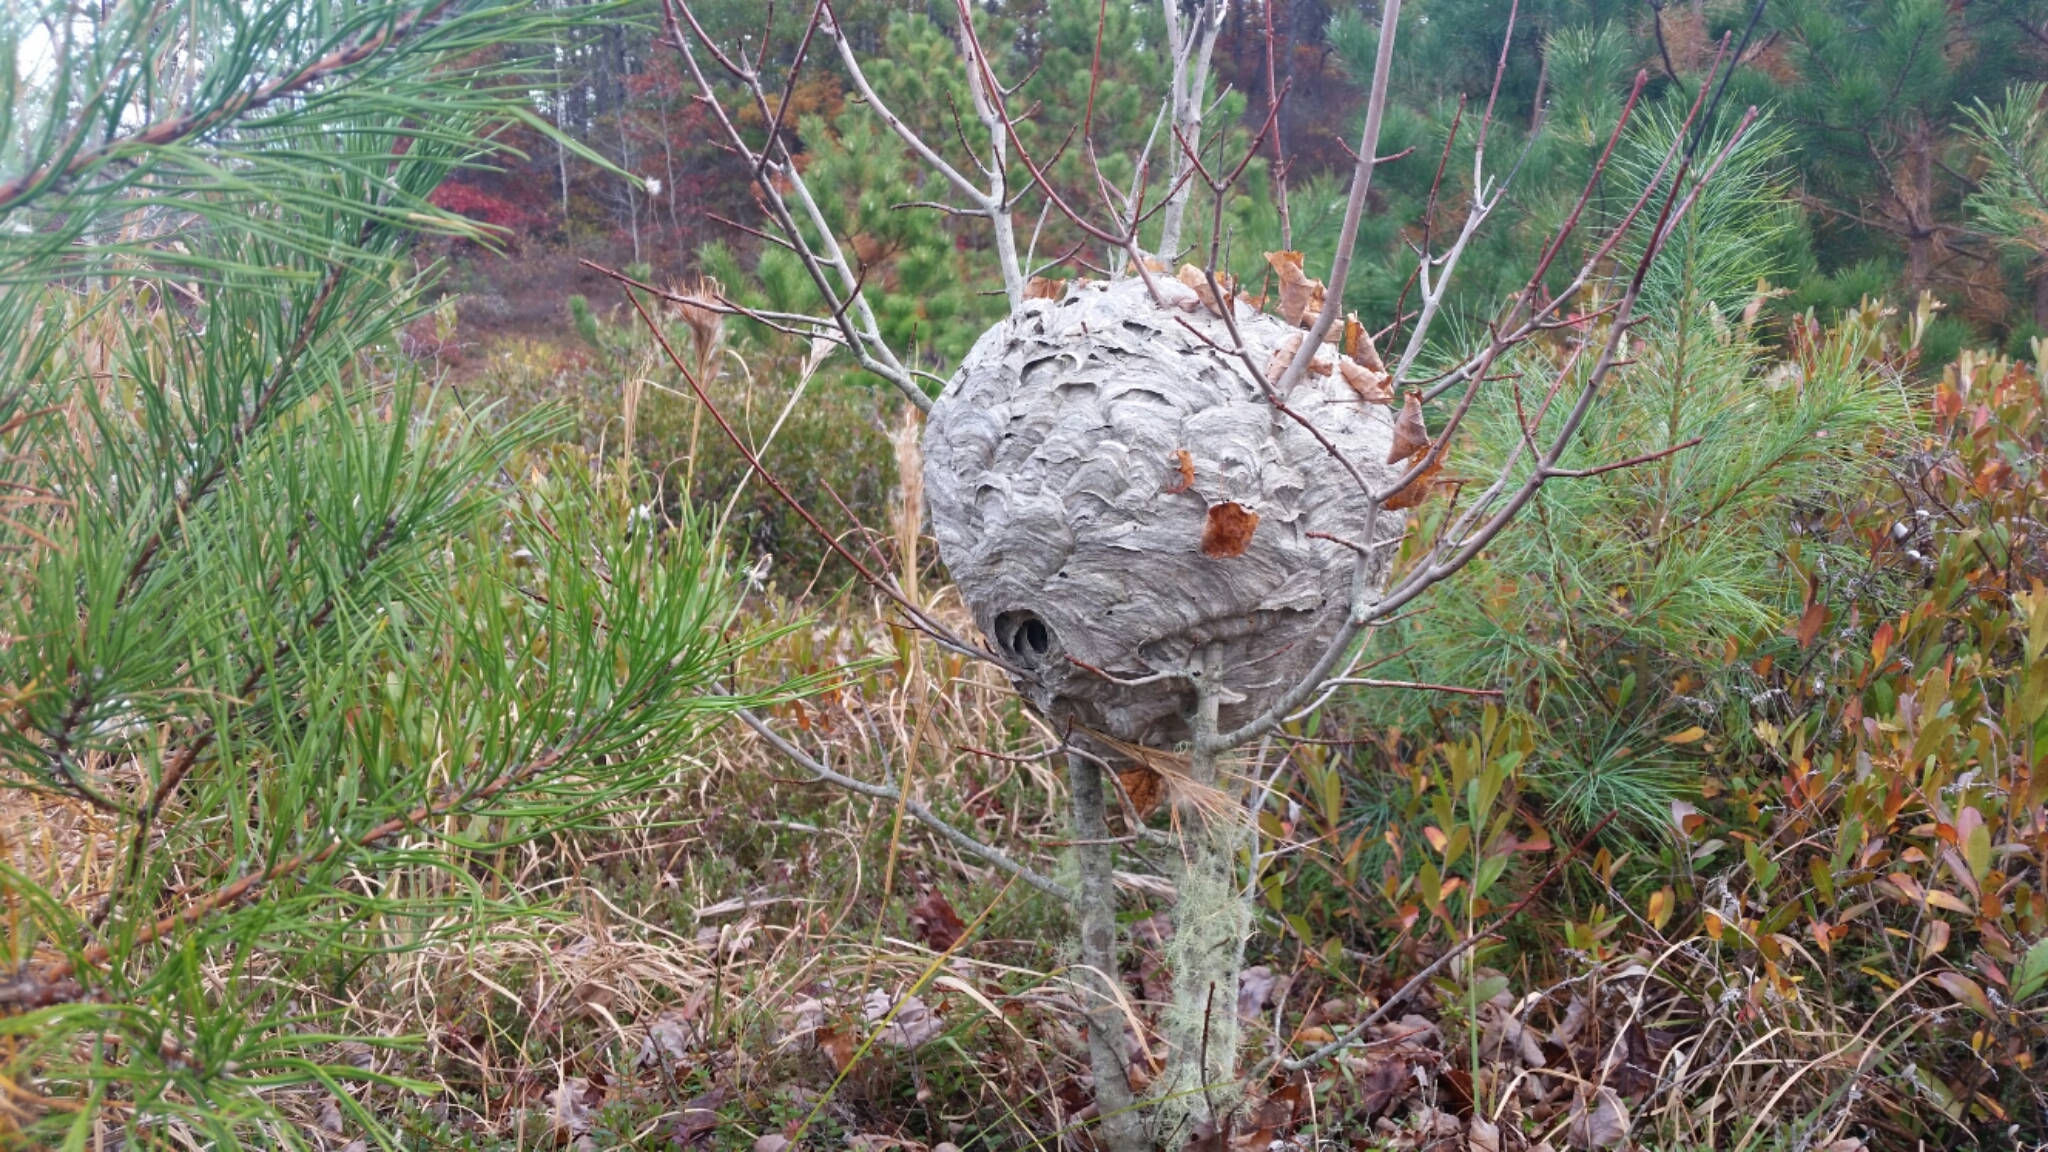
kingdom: Animalia
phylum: Arthropoda
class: Insecta
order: Hymenoptera
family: Vespidae
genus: Dolichovespula
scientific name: Dolichovespula maculata
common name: Bald-faced hornet
